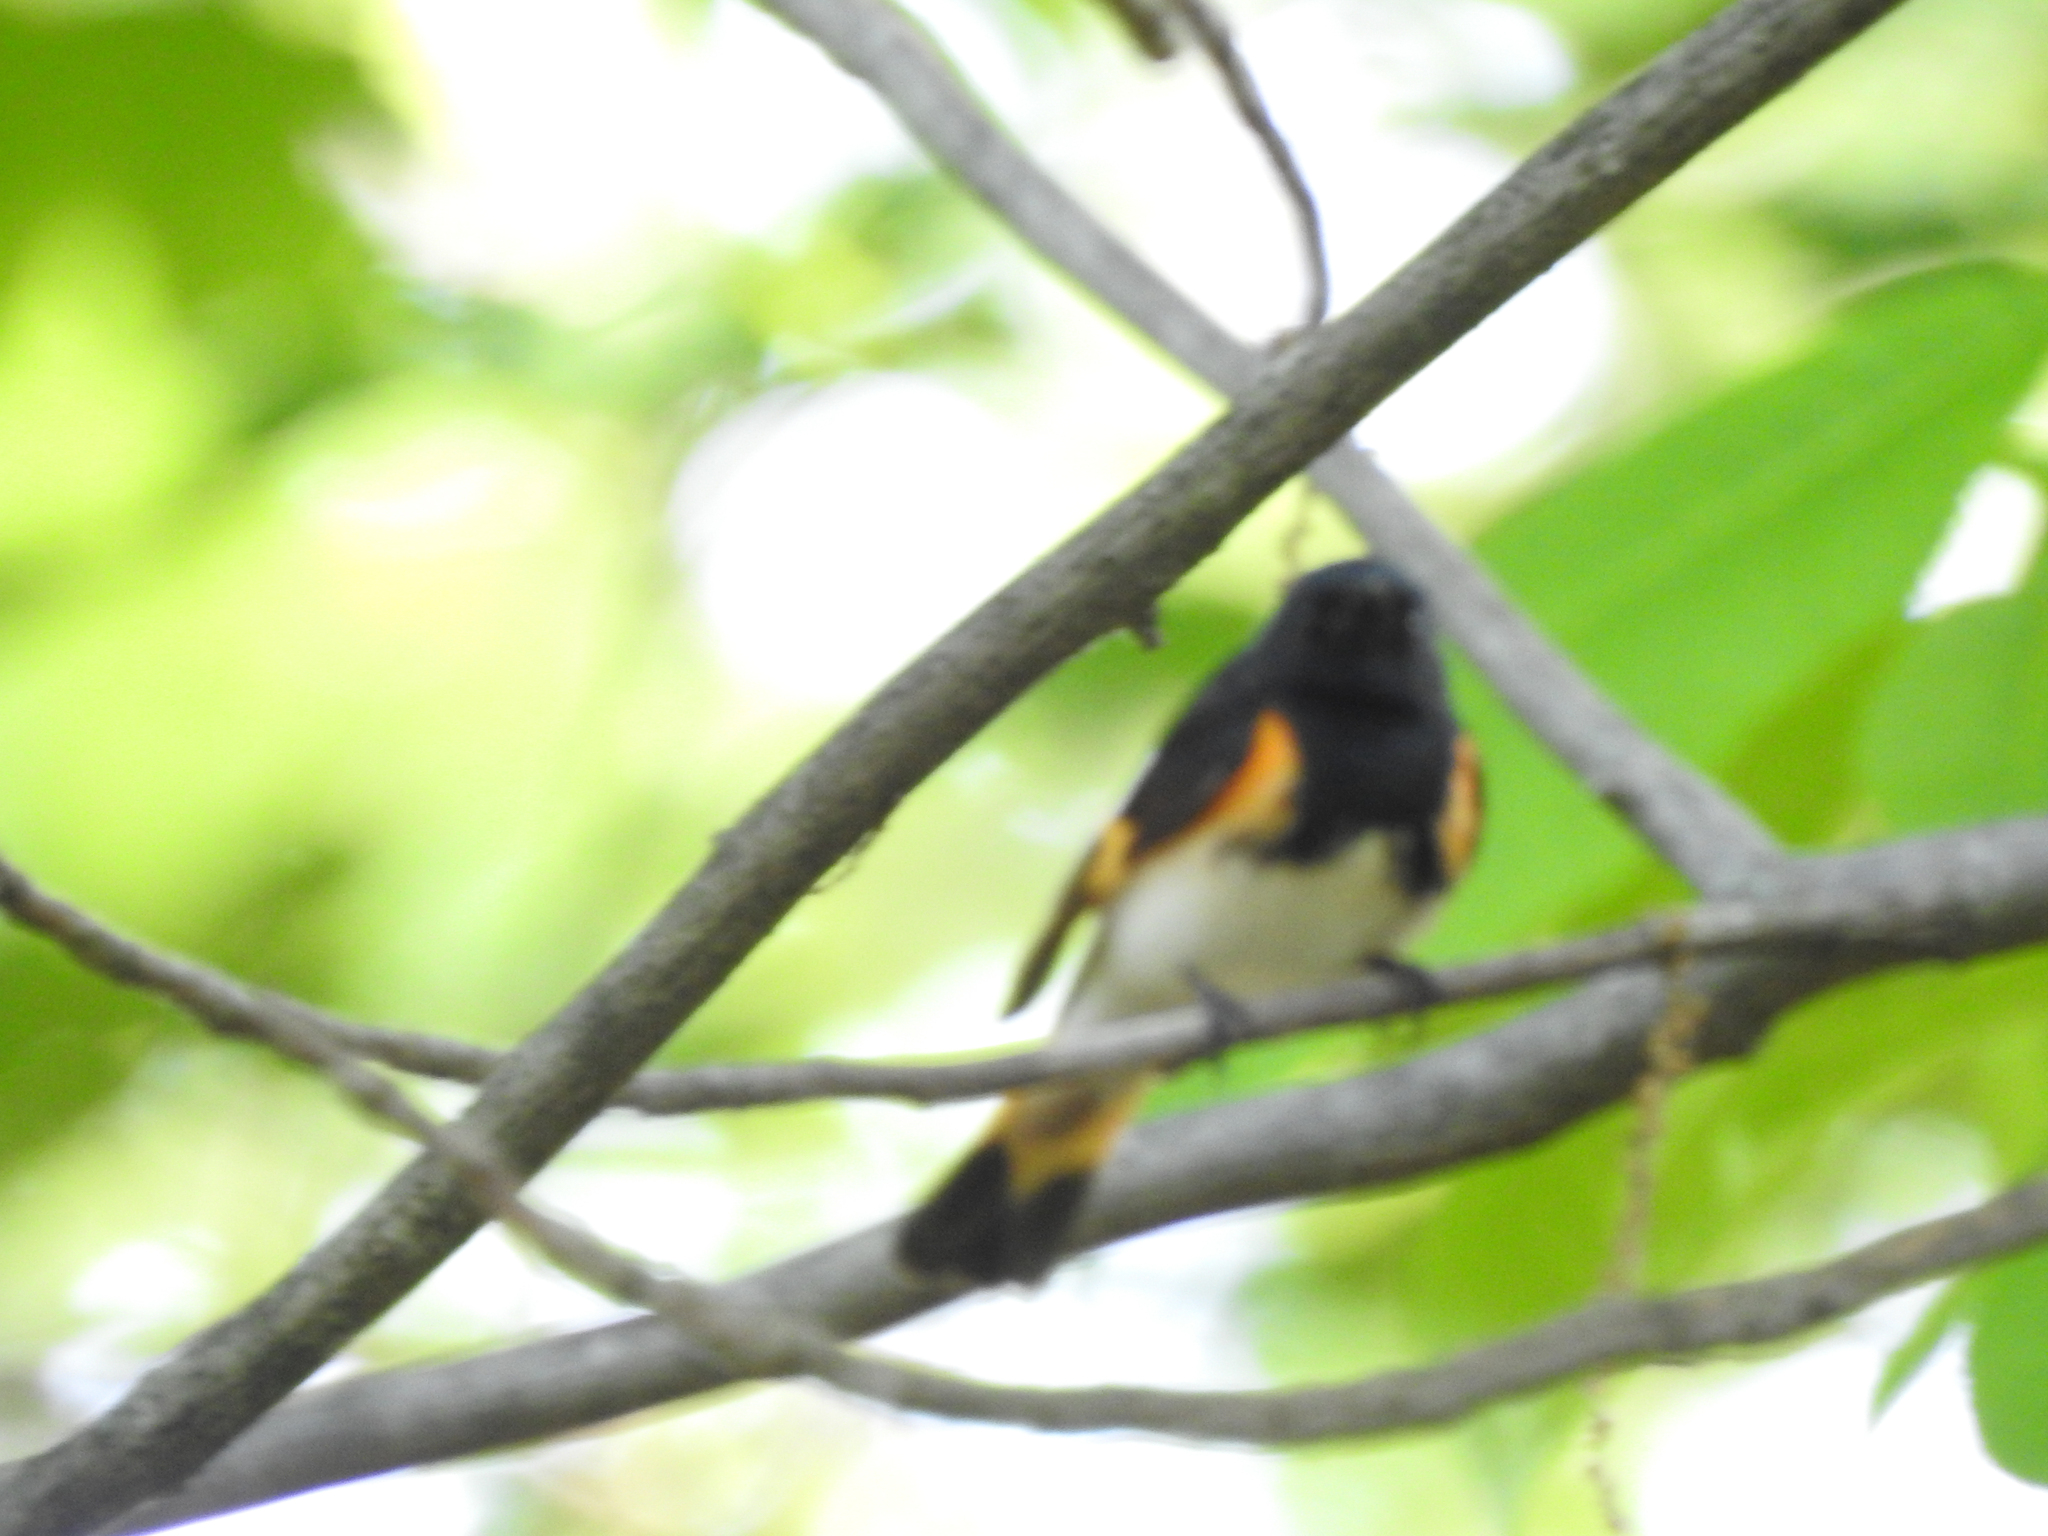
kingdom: Animalia
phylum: Chordata
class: Aves
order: Passeriformes
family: Parulidae
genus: Setophaga
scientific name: Setophaga ruticilla
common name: American redstart
